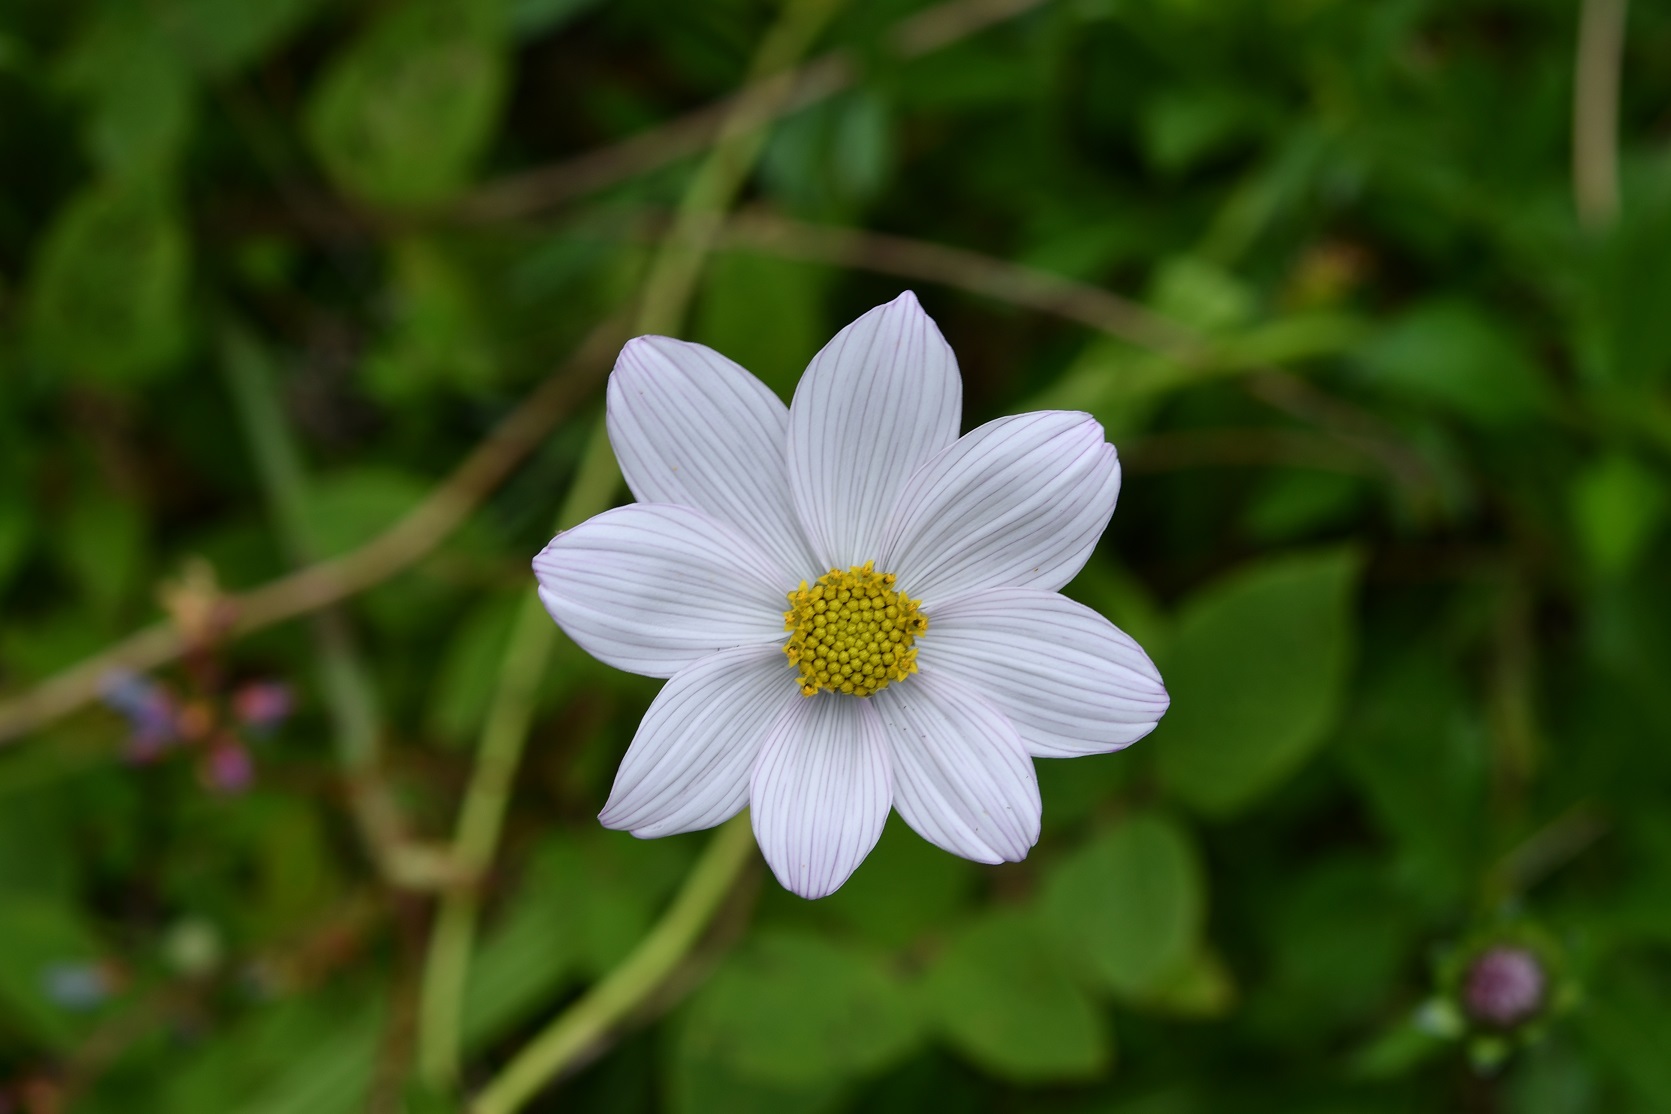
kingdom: Plantae
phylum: Tracheophyta
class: Magnoliopsida
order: Asterales
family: Asteraceae
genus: Cosmos
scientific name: Cosmos diversifolius
